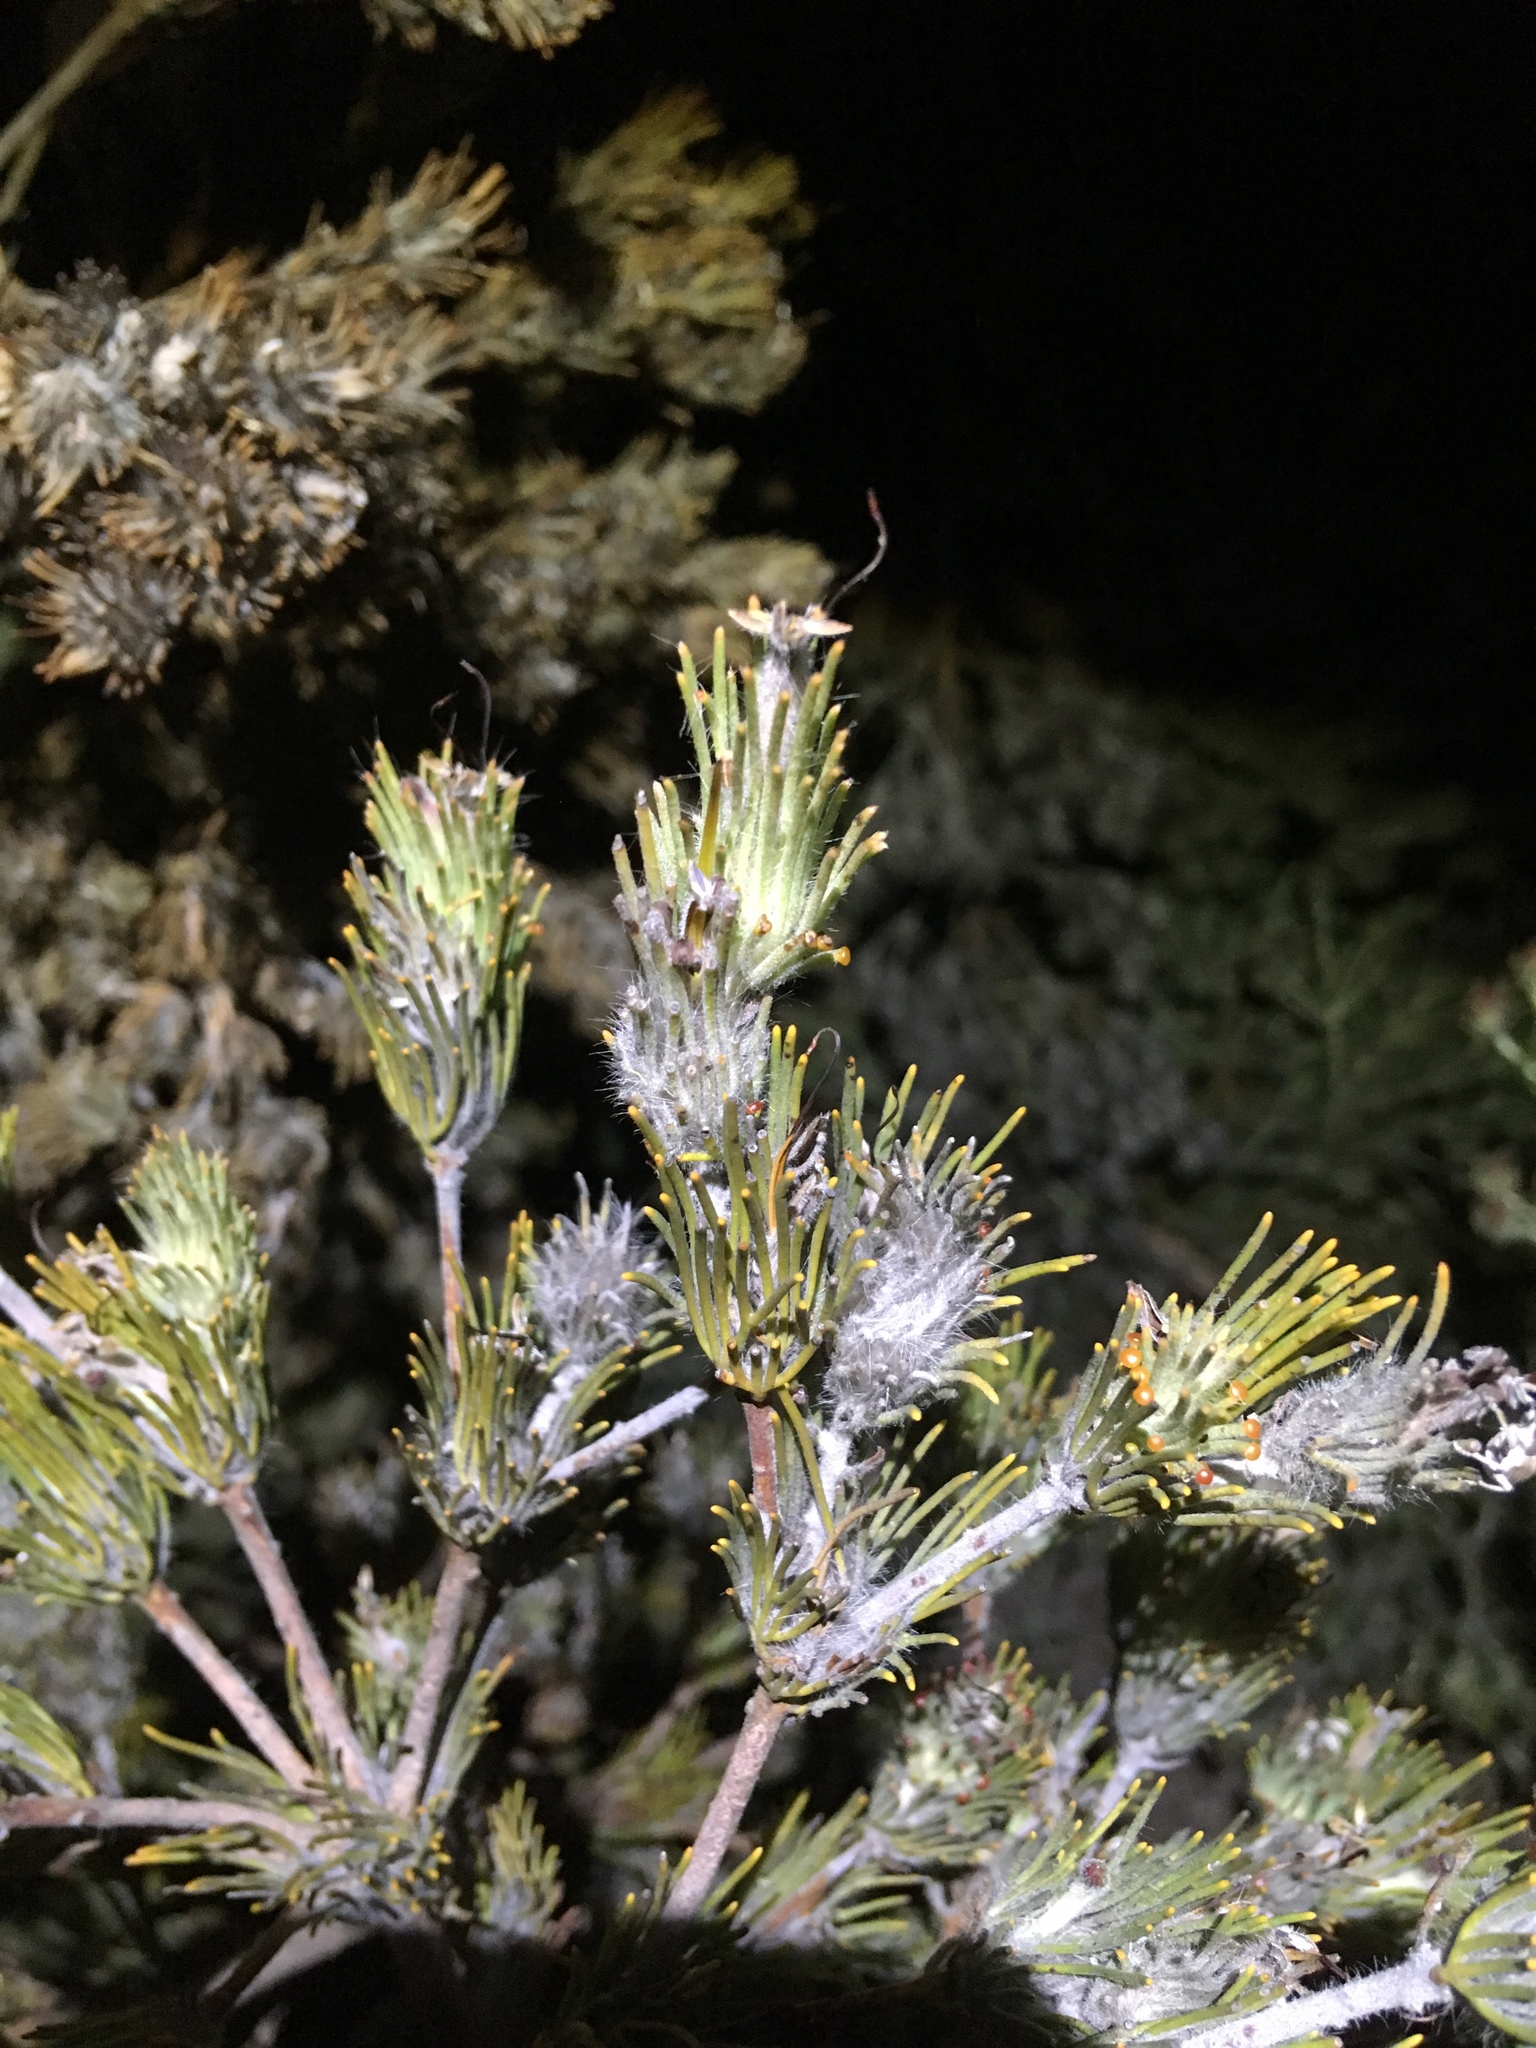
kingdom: Plantae
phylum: Tracheophyta
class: Magnoliopsida
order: Proteales
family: Proteaceae
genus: Adenanthos
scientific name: Adenanthos cygnorum
